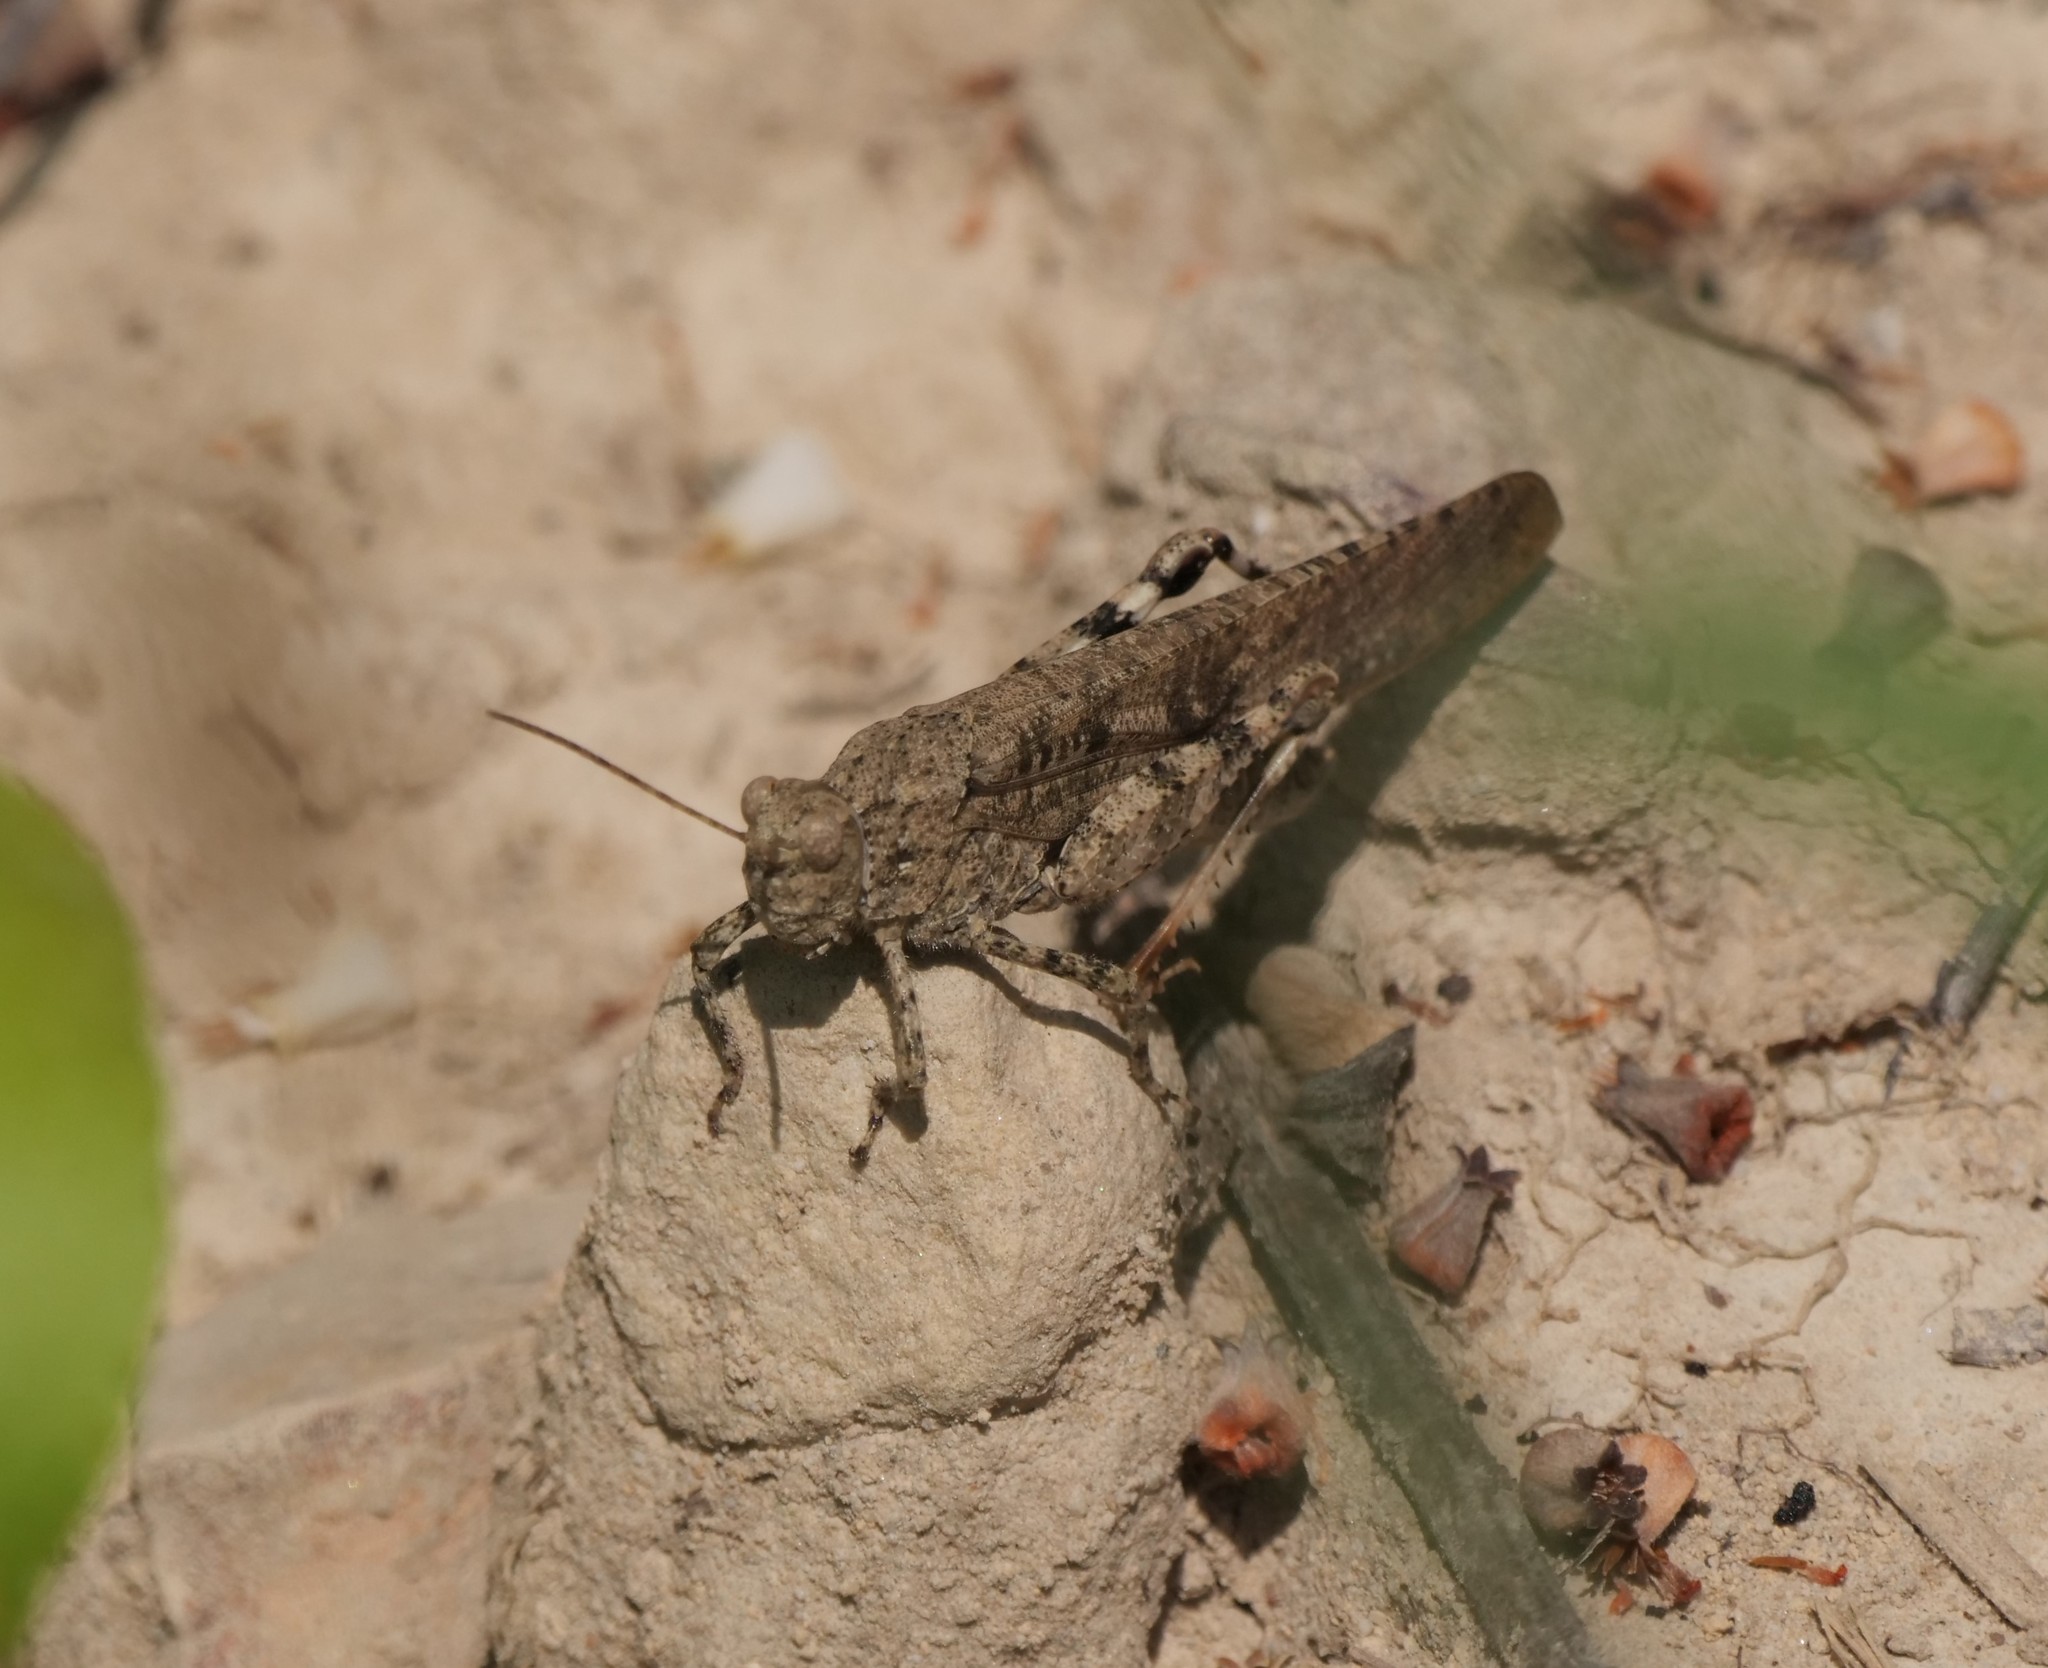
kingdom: Animalia
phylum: Arthropoda
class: Insecta
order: Orthoptera
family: Acrididae
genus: Dissosteira
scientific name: Dissosteira carolina
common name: Carolina grasshopper
